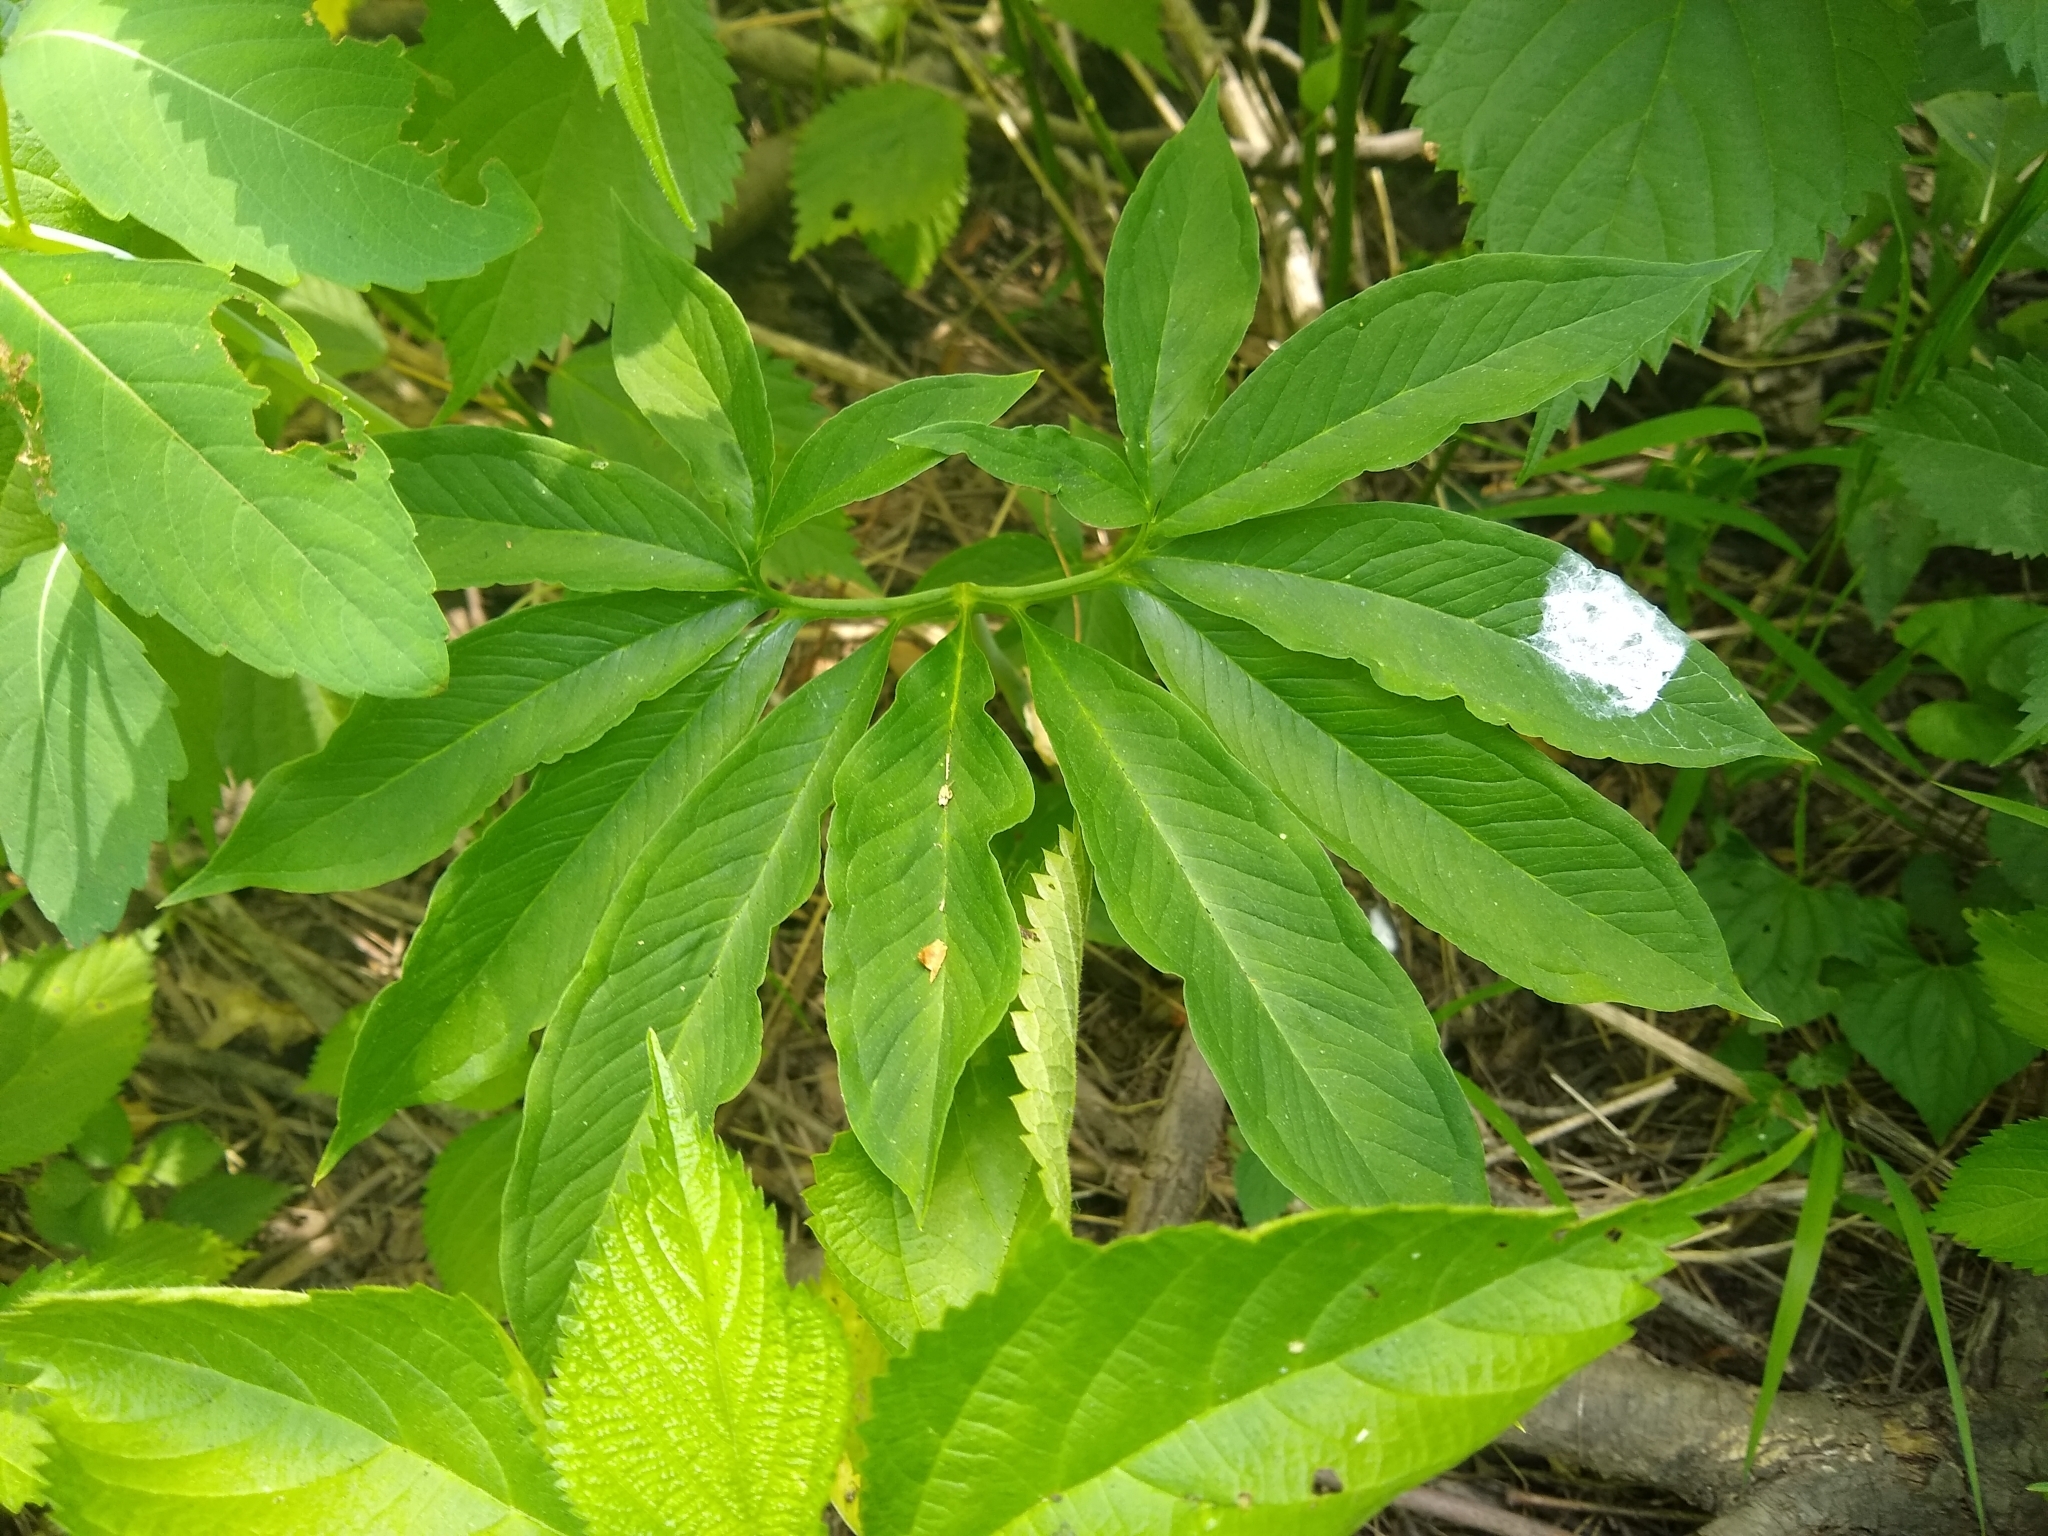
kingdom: Plantae
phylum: Tracheophyta
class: Liliopsida
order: Alismatales
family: Araceae
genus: Arisaema
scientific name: Arisaema dracontium
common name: Dragon-arum
